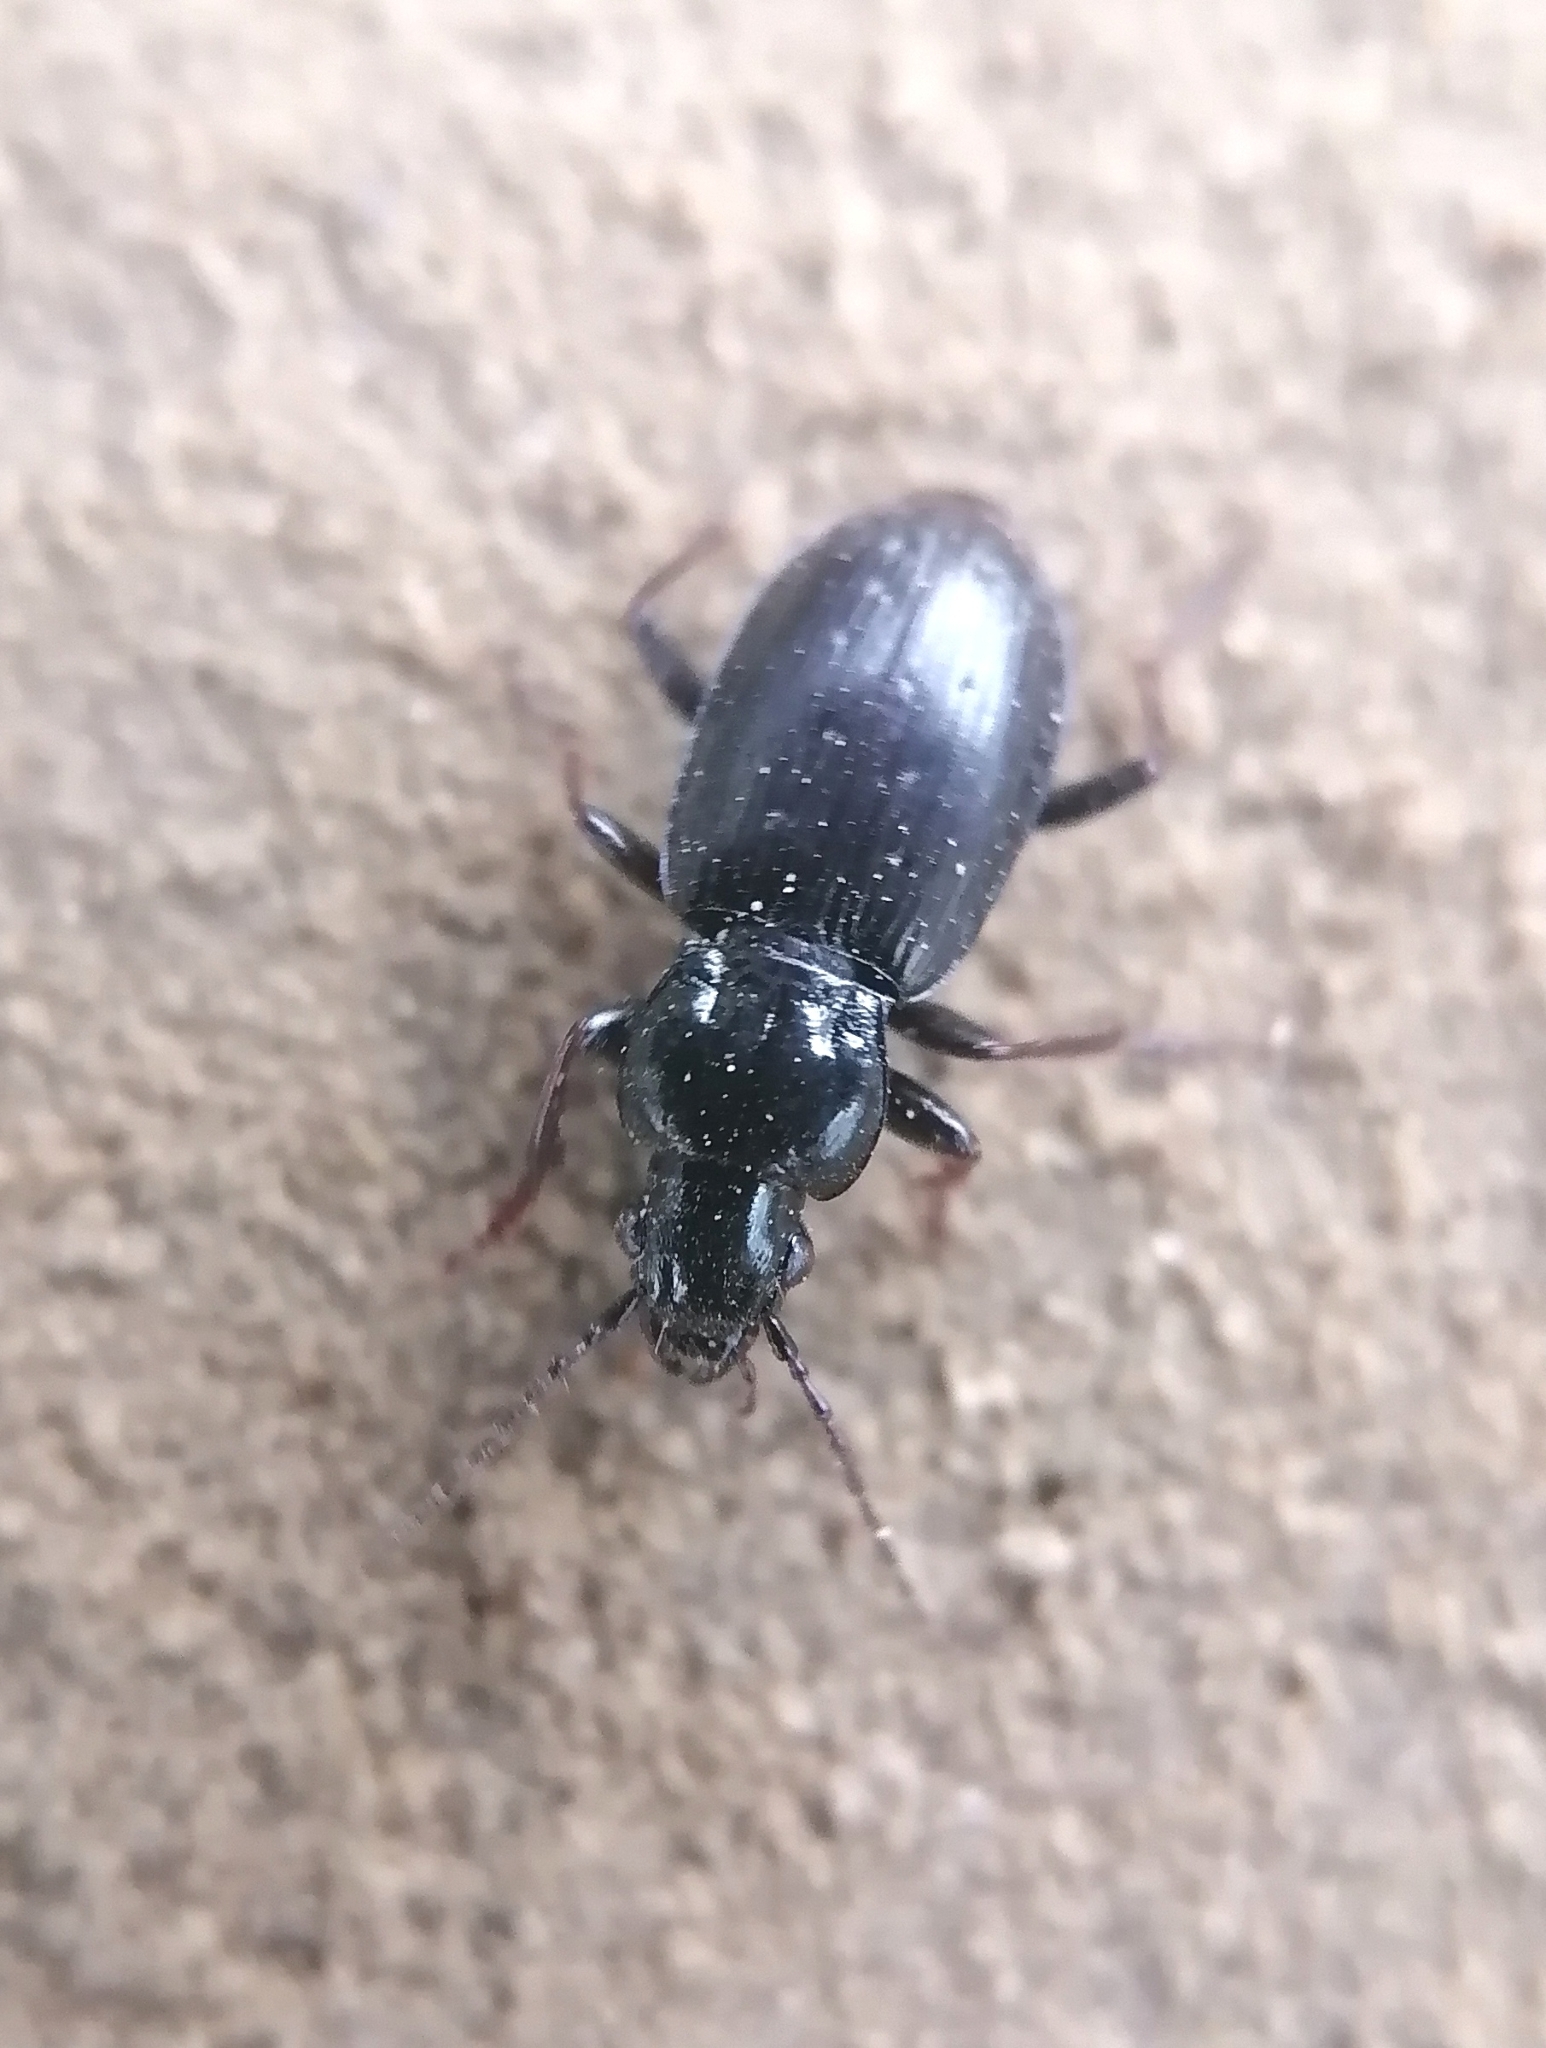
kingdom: Animalia
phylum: Arthropoda
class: Insecta
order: Coleoptera
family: Carabidae
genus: Pterostichus
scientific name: Pterostichus oblongopunctatus
